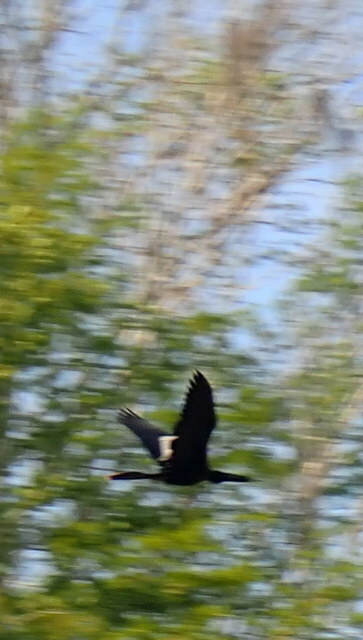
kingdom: Animalia
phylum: Chordata
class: Aves
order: Suliformes
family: Anhingidae
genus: Anhinga
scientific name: Anhinga anhinga
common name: Anhinga
